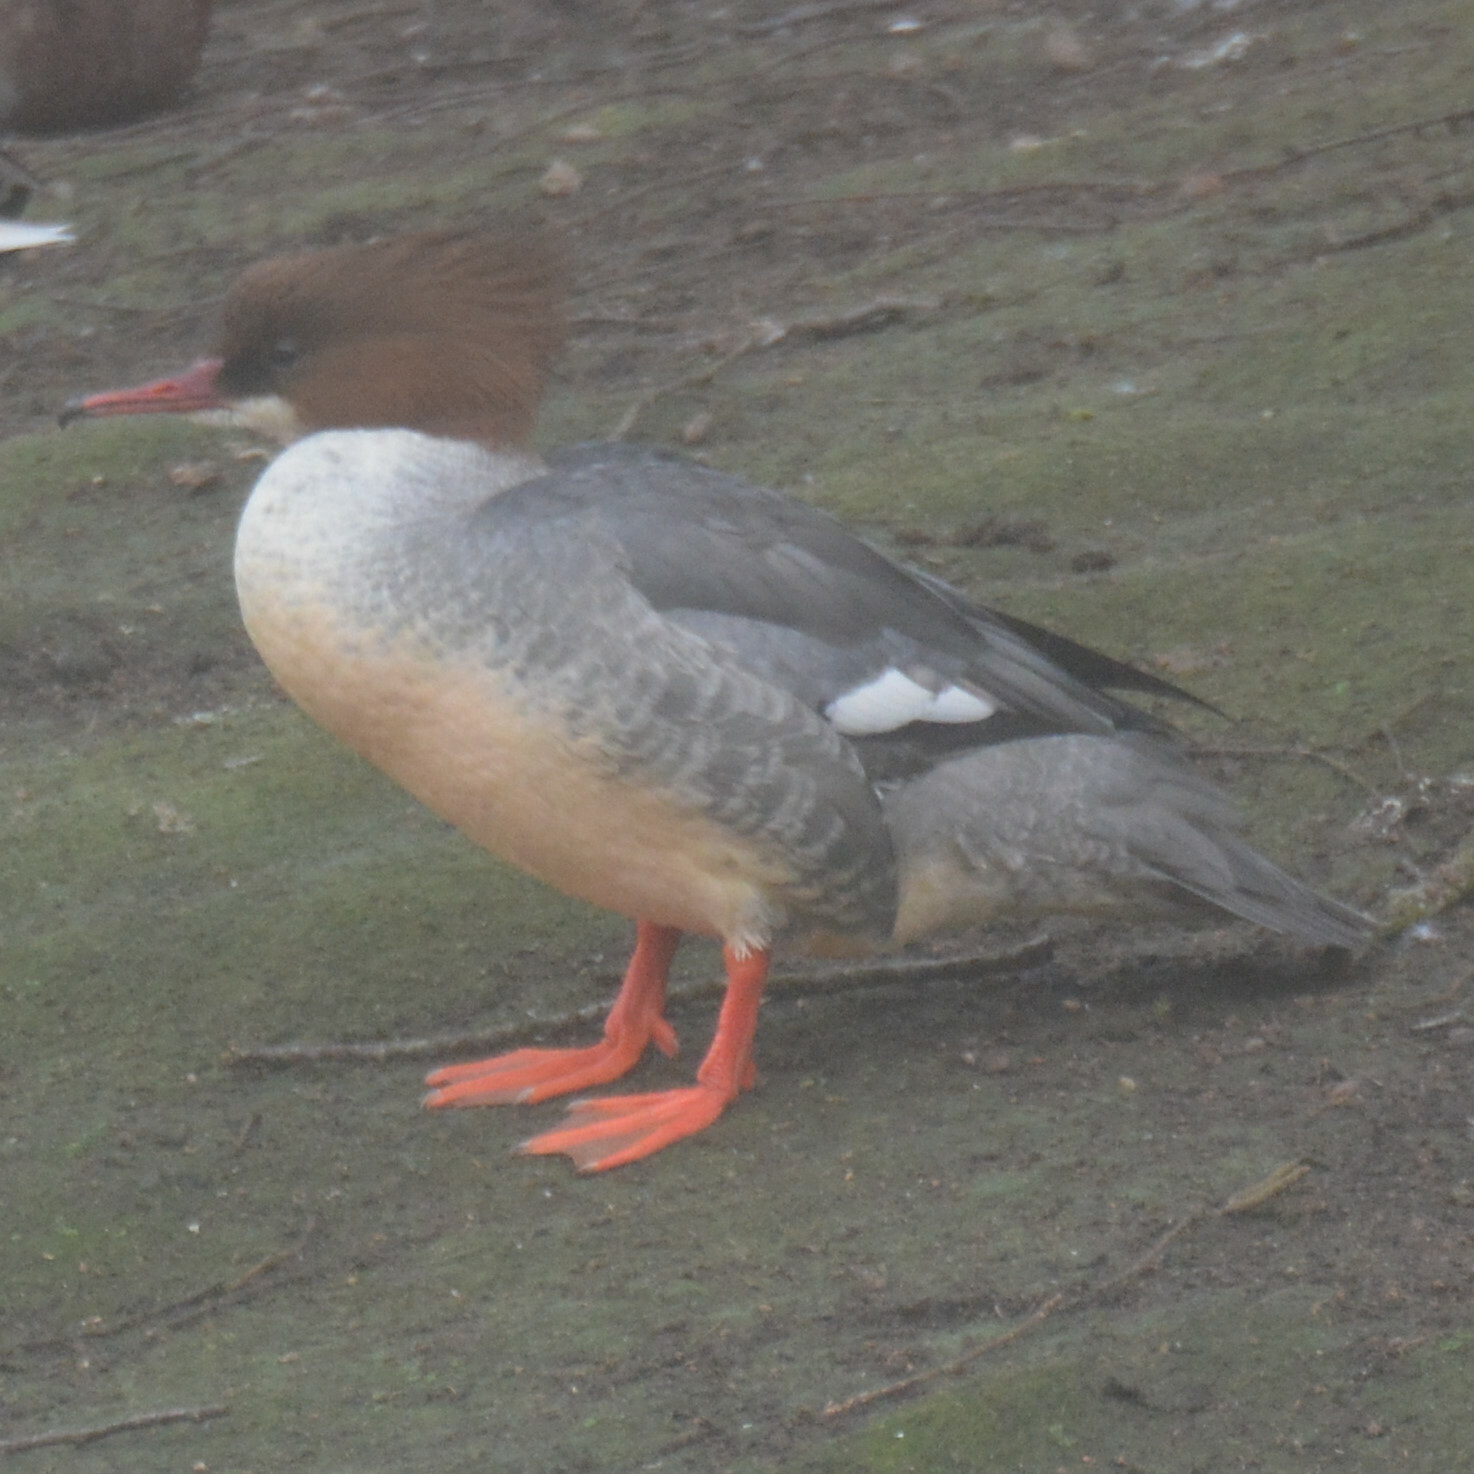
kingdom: Animalia
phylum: Chordata
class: Aves
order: Anseriformes
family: Anatidae
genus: Mergus
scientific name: Mergus merganser
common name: Common merganser
